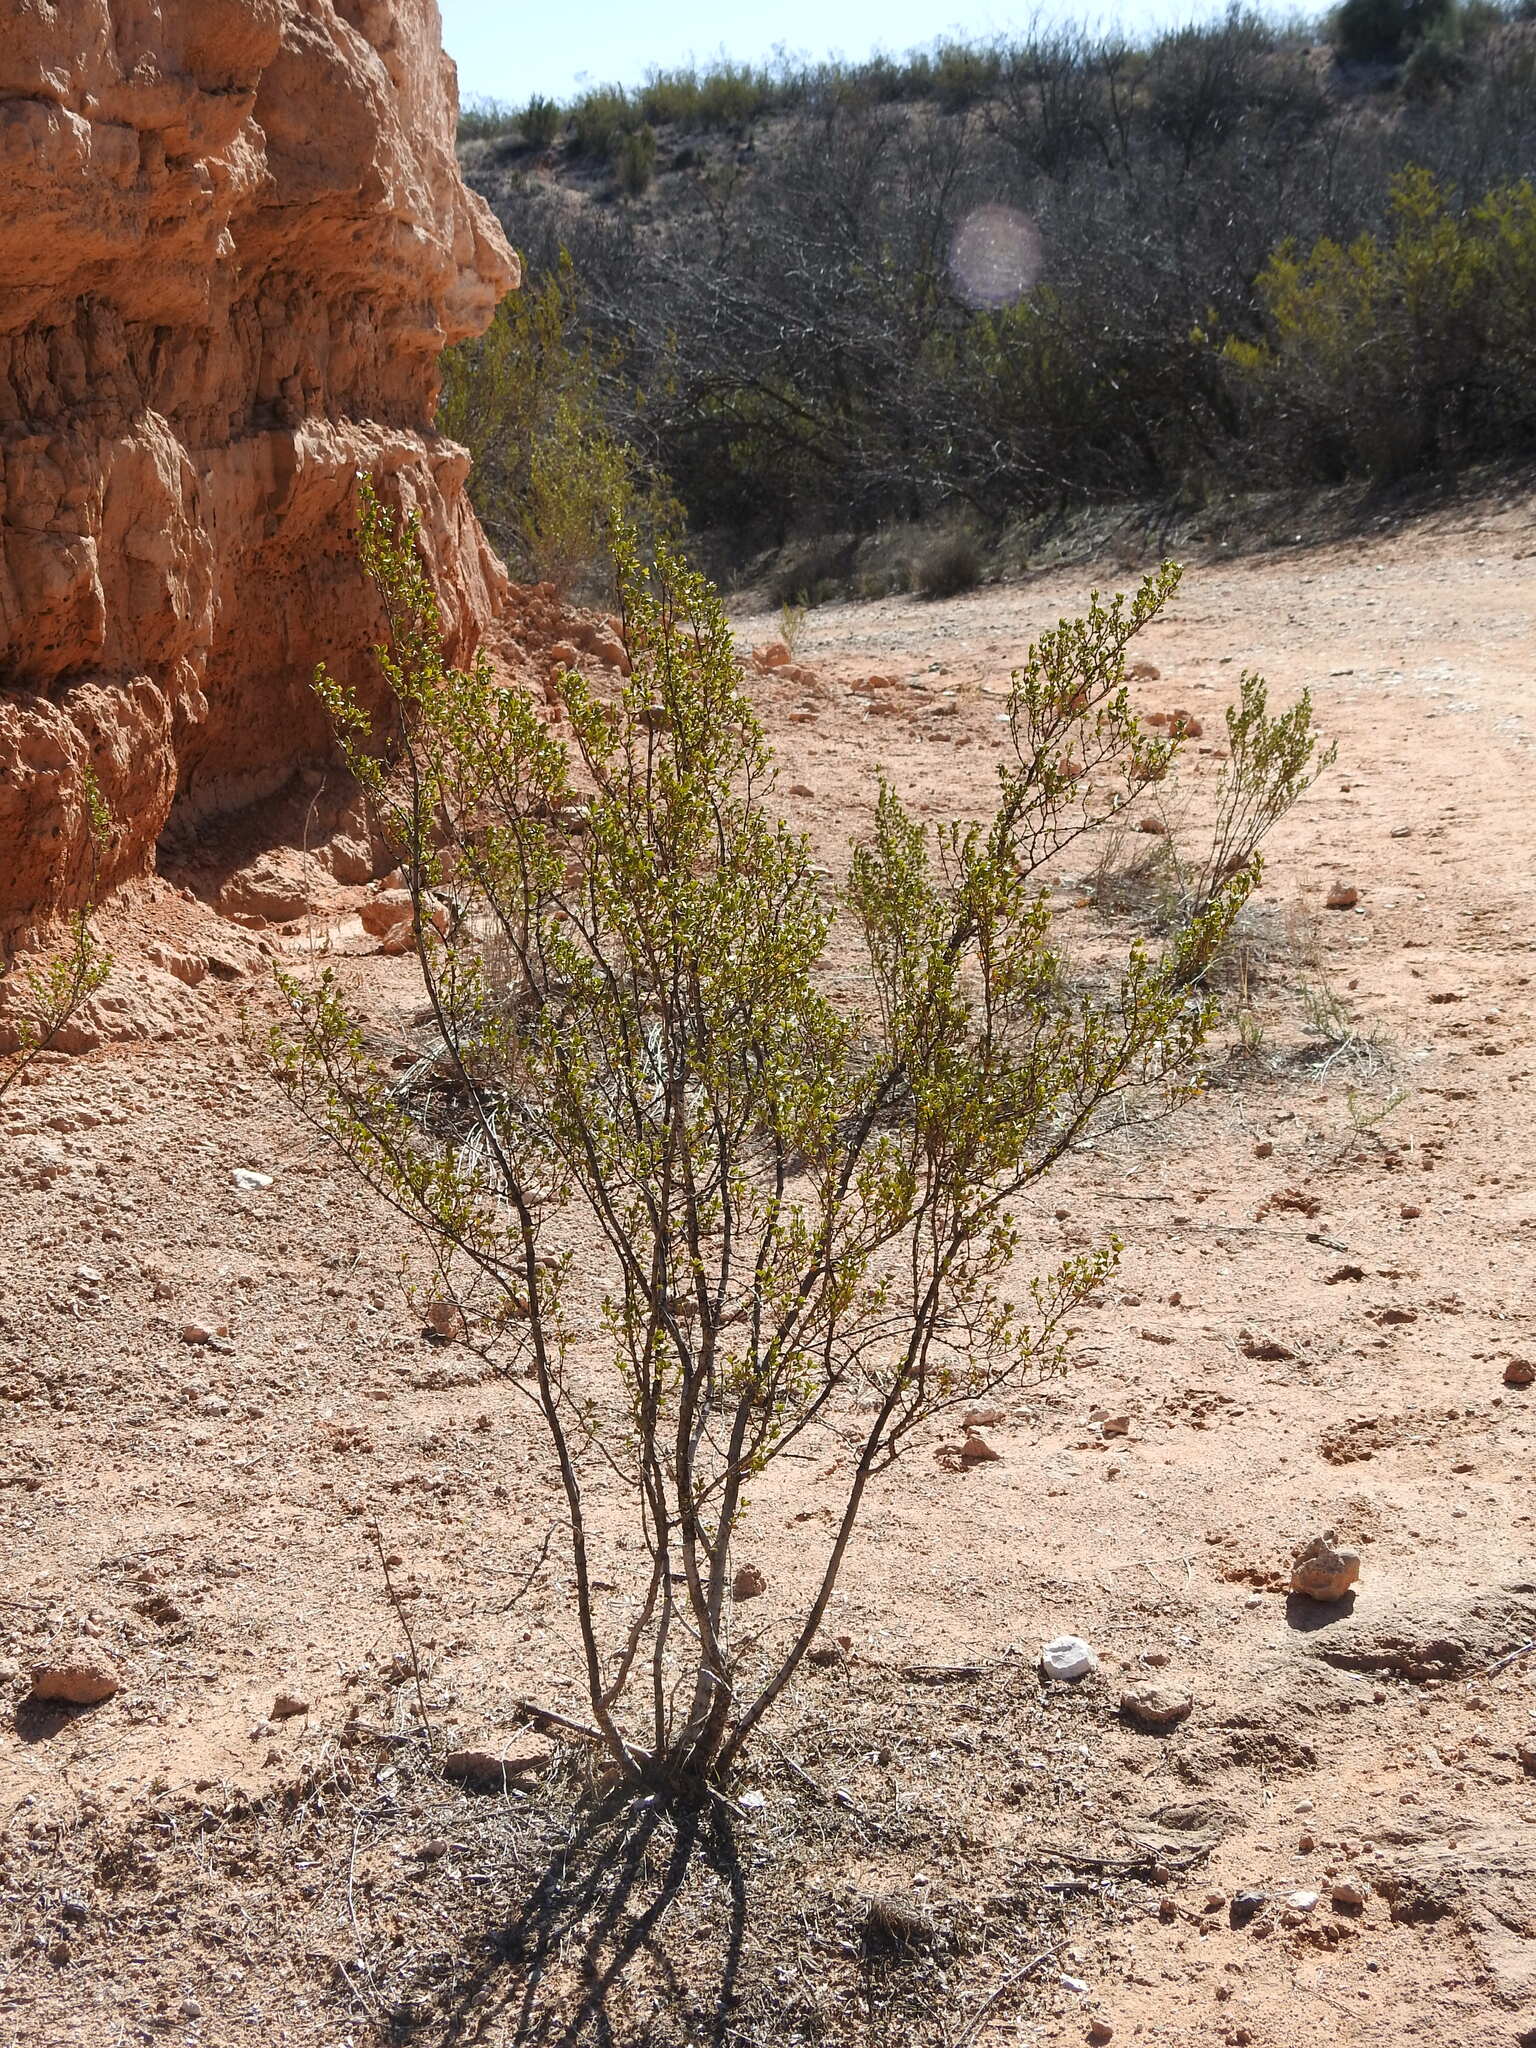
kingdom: Plantae
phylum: Tracheophyta
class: Magnoliopsida
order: Zygophyllales
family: Zygophyllaceae
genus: Larrea
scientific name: Larrea tridentata
